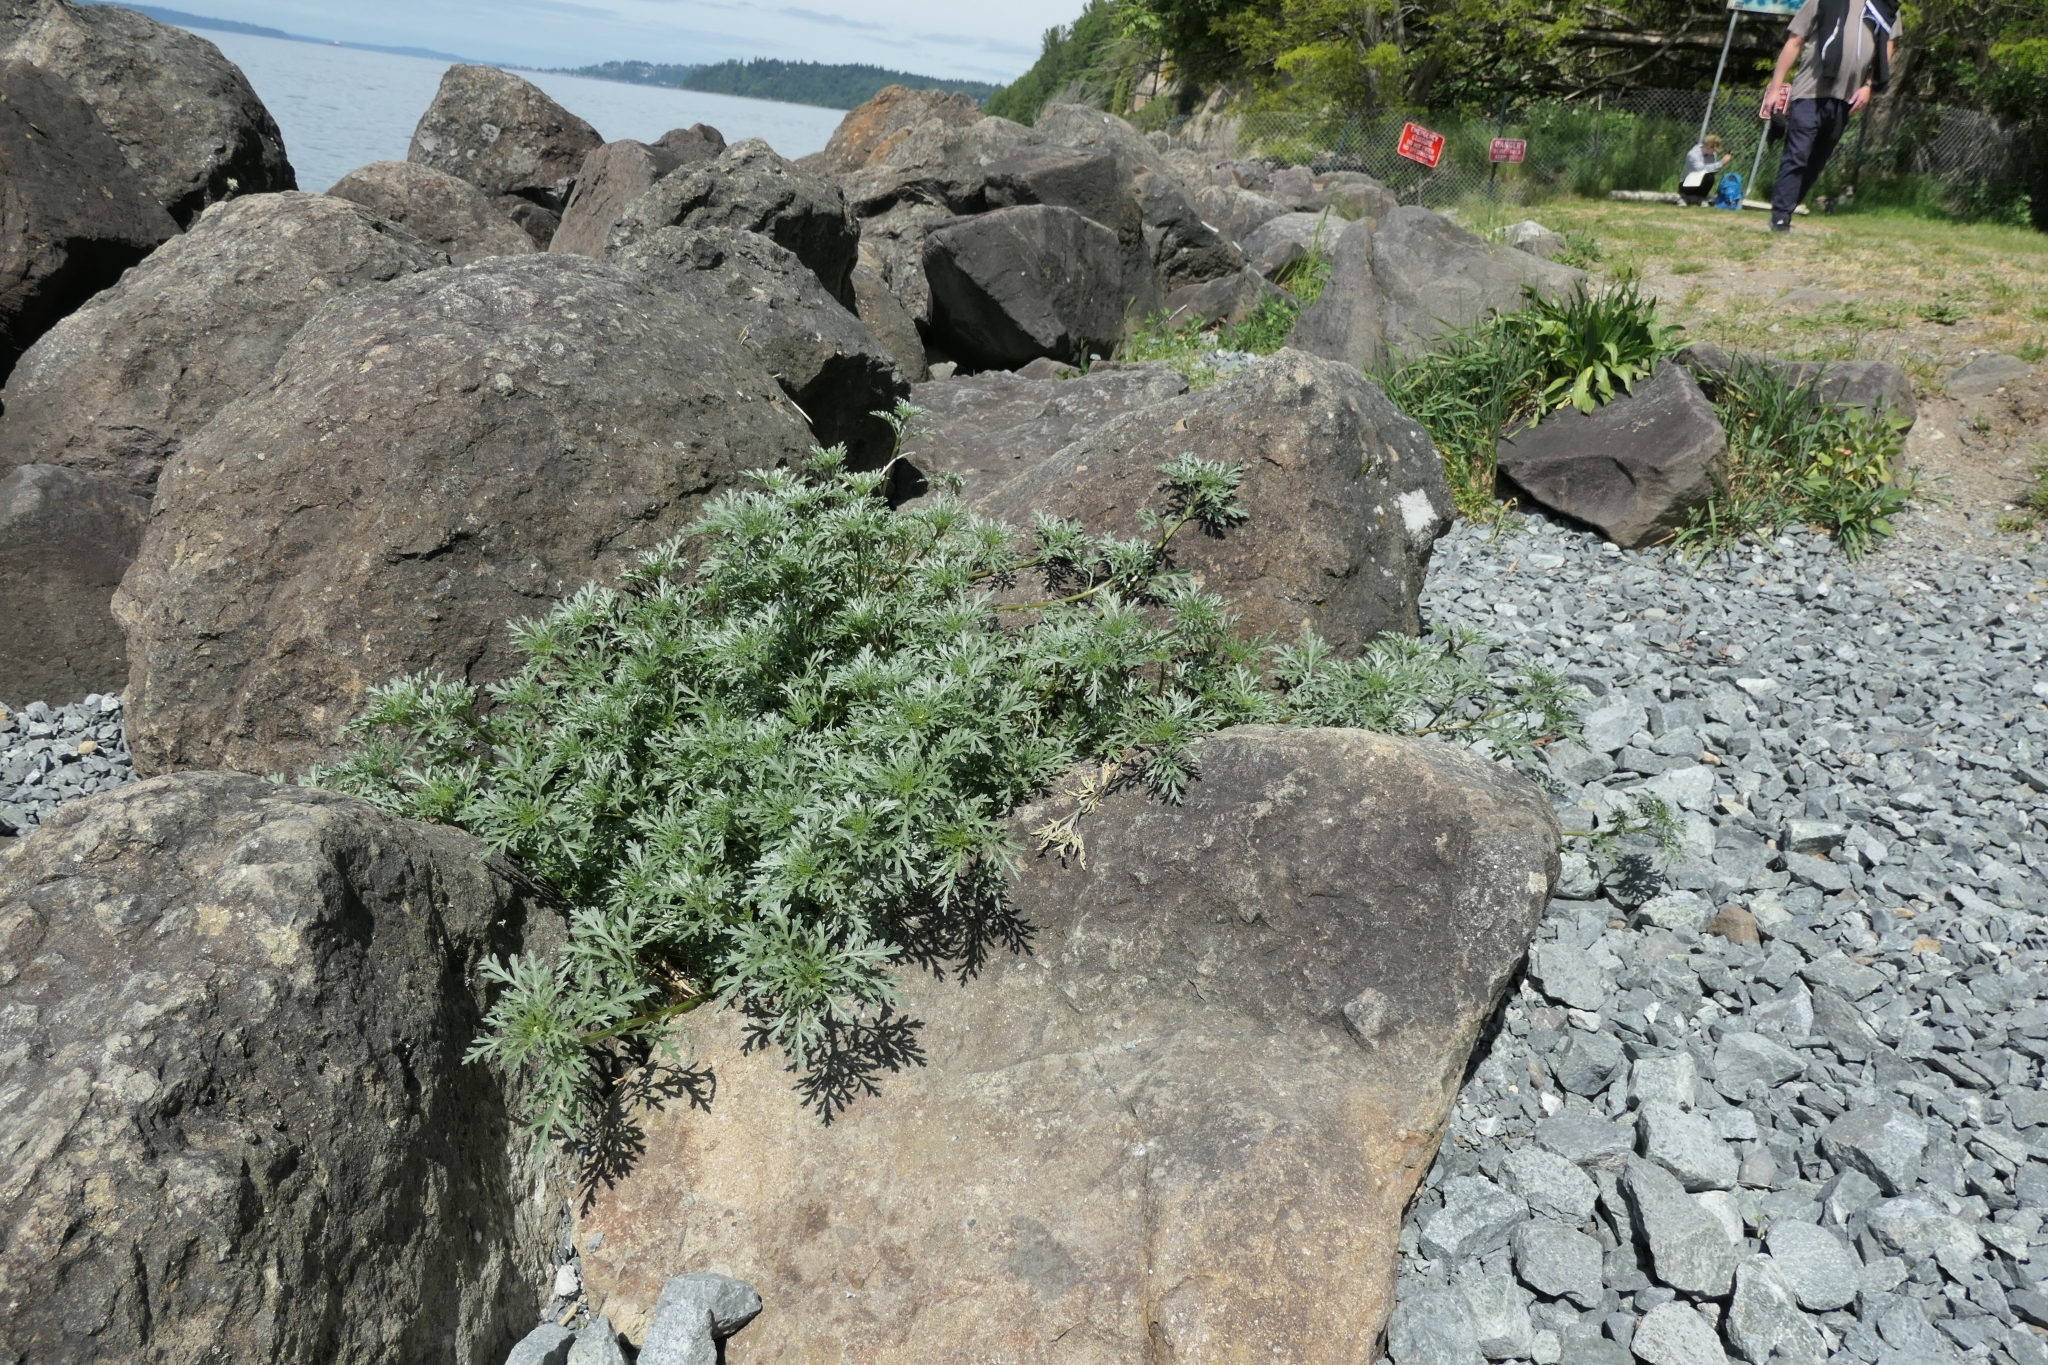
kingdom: Plantae
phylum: Tracheophyta
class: Magnoliopsida
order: Asterales
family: Asteraceae
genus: Ambrosia
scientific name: Ambrosia chamissonis
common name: Beachbur
